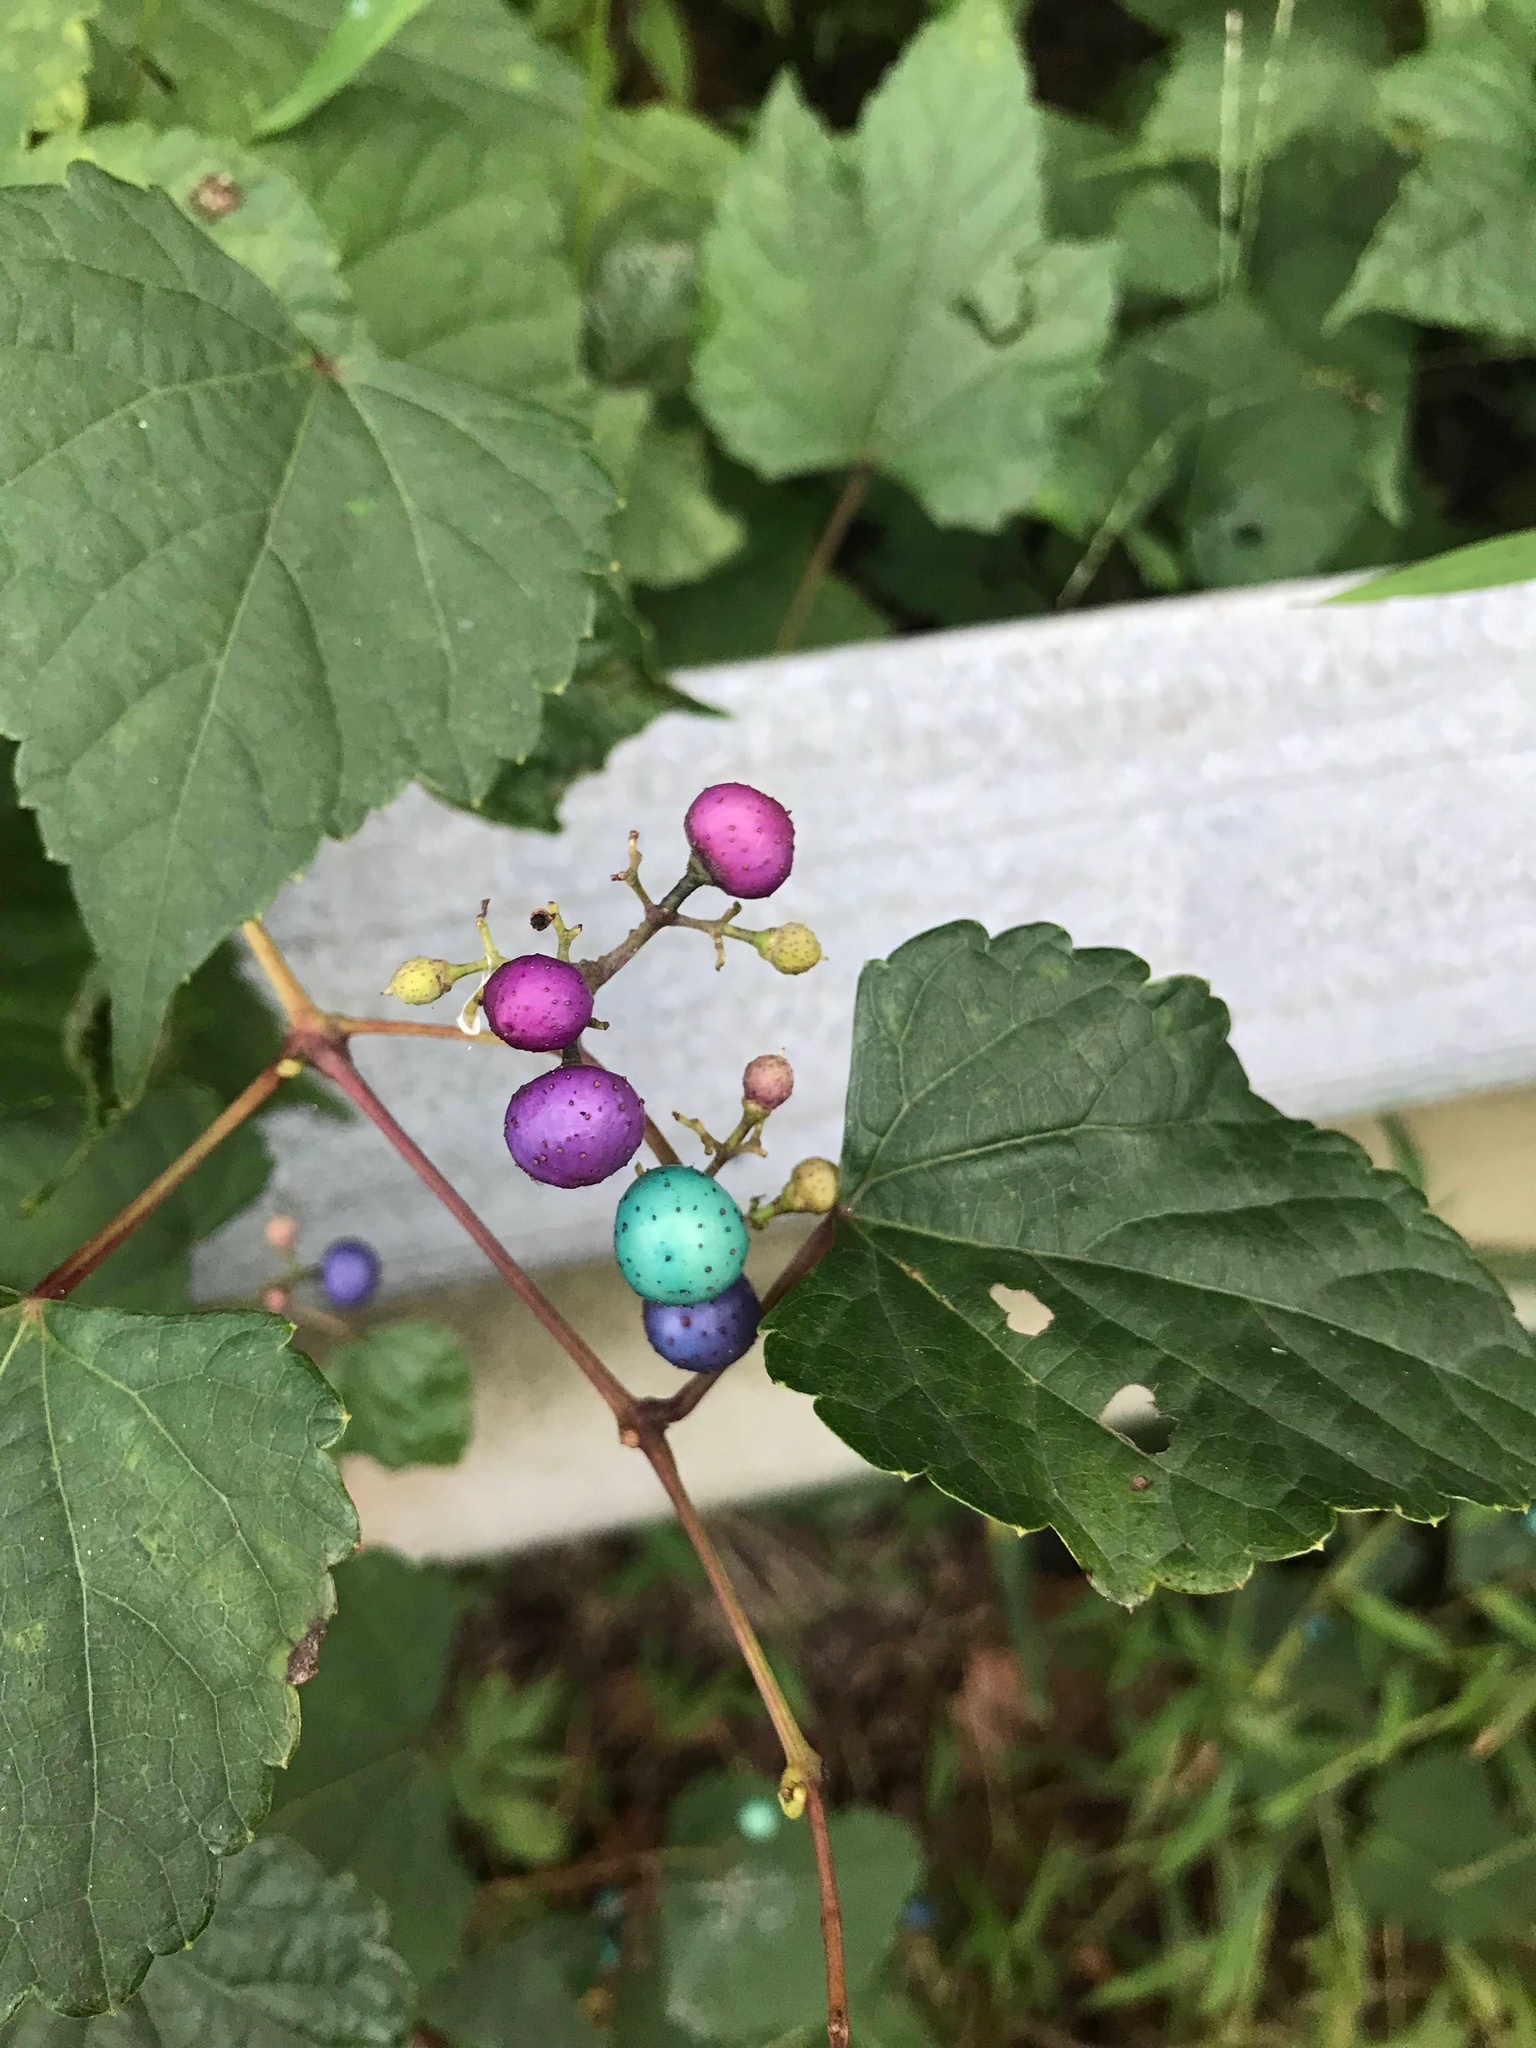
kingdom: Plantae
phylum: Tracheophyta
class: Magnoliopsida
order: Vitales
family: Vitaceae
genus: Ampelopsis
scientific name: Ampelopsis glandulosa
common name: Amur peppervine
